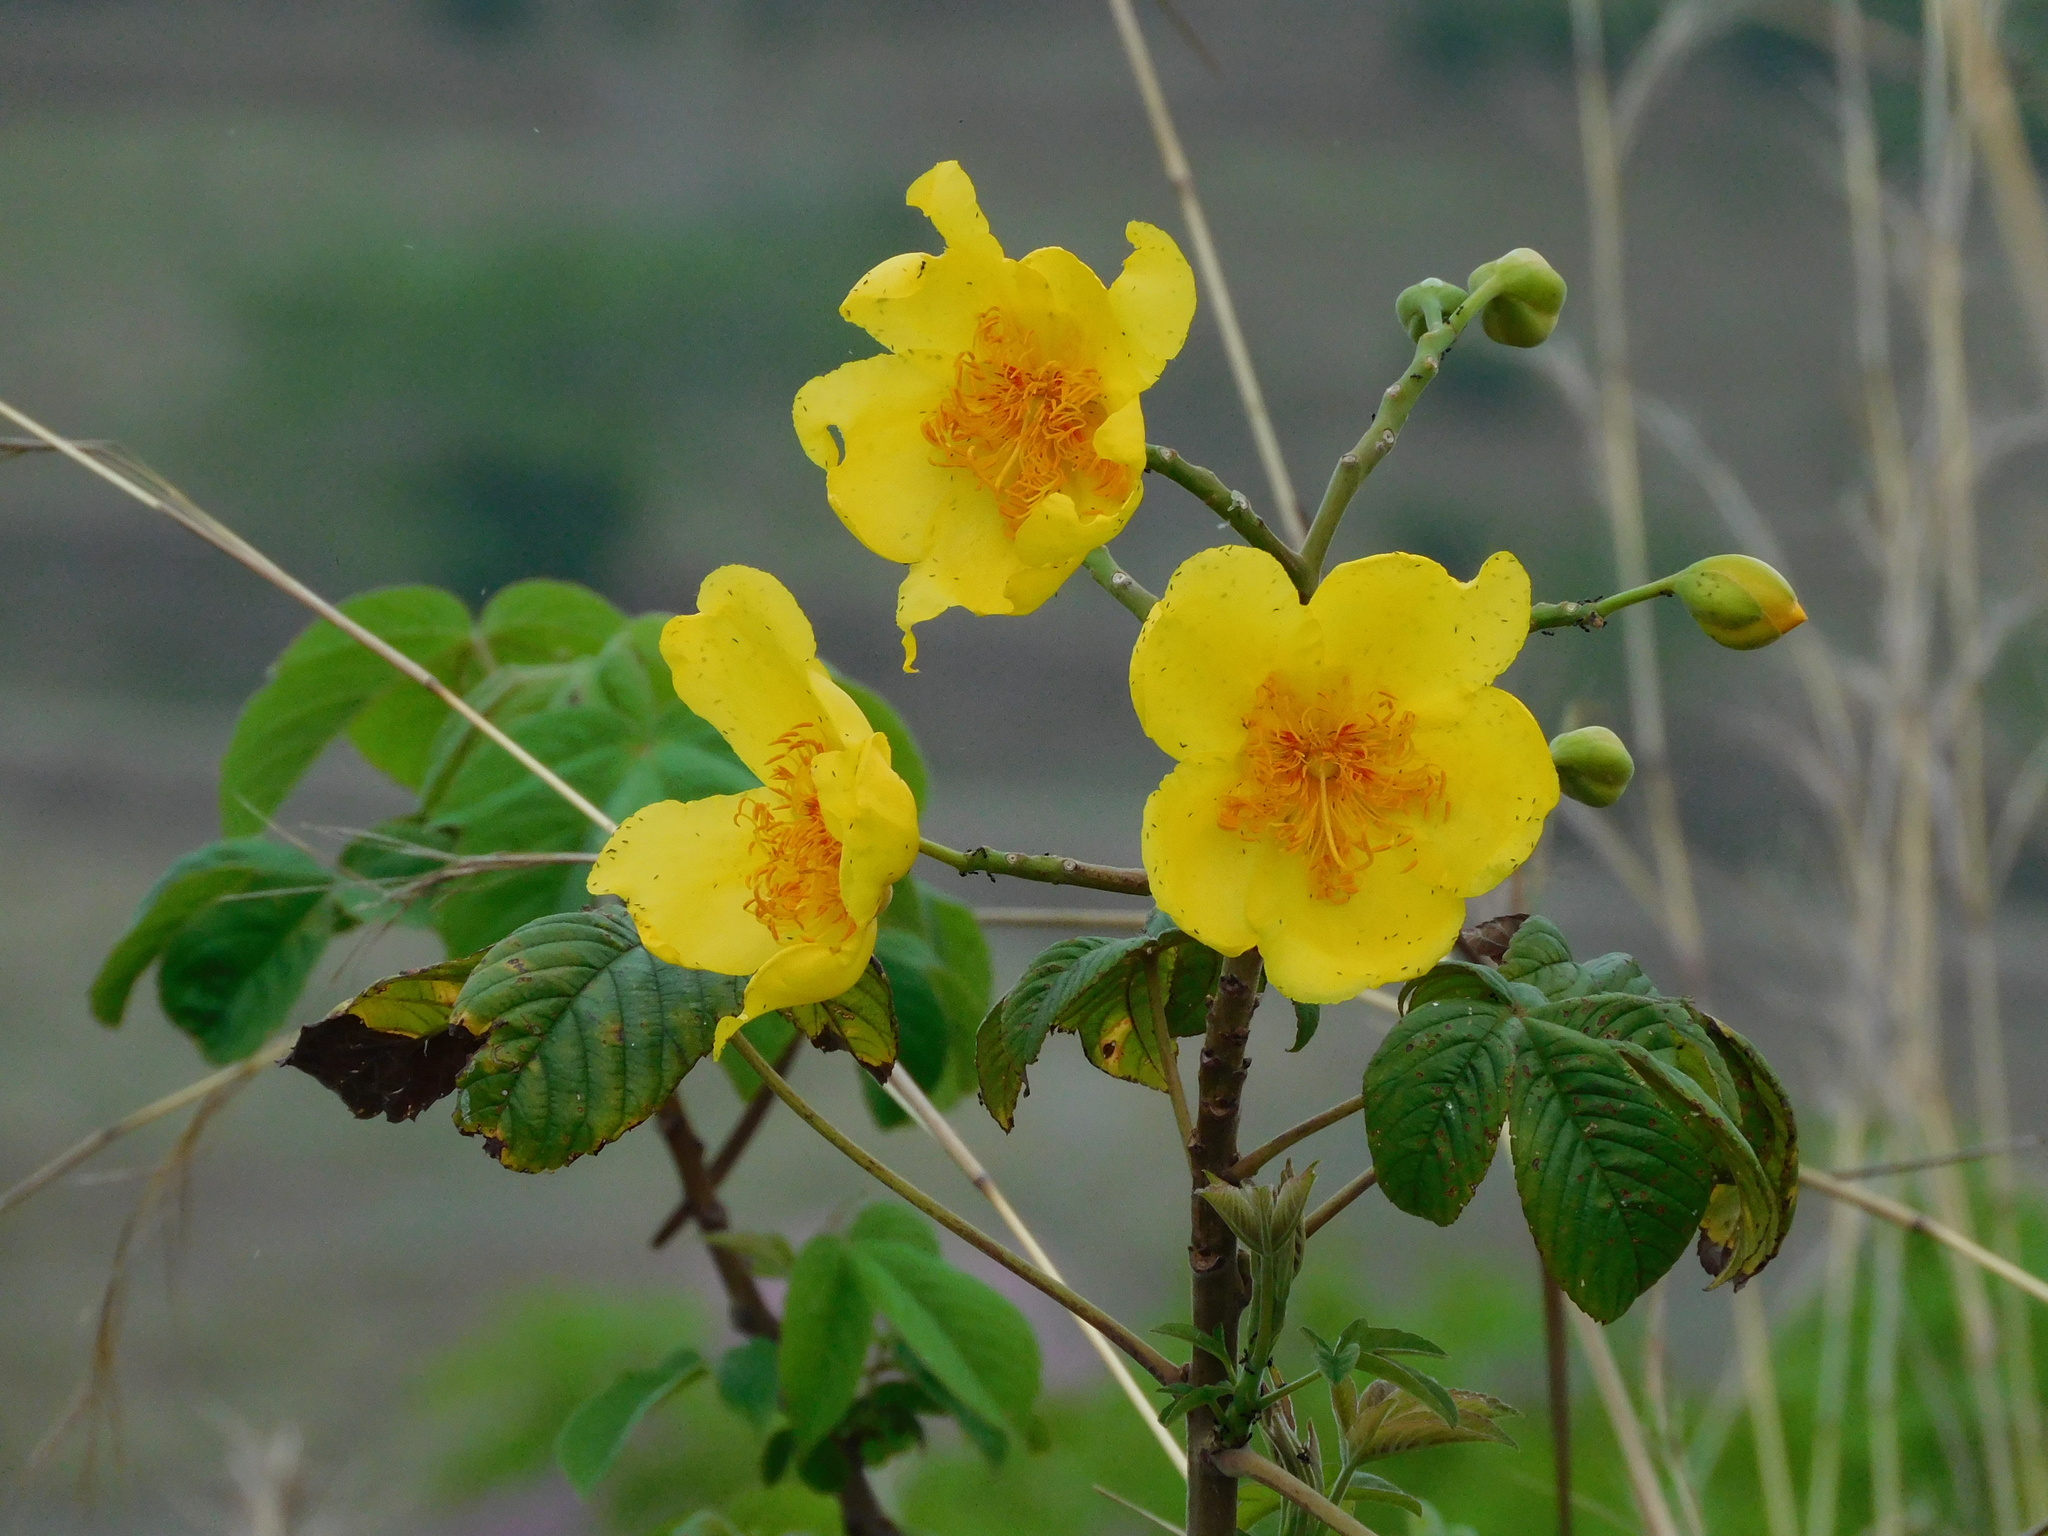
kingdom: Plantae
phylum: Tracheophyta
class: Magnoliopsida
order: Malvales
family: Cochlospermaceae
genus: Cochlospermum
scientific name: Cochlospermum vitifolium
